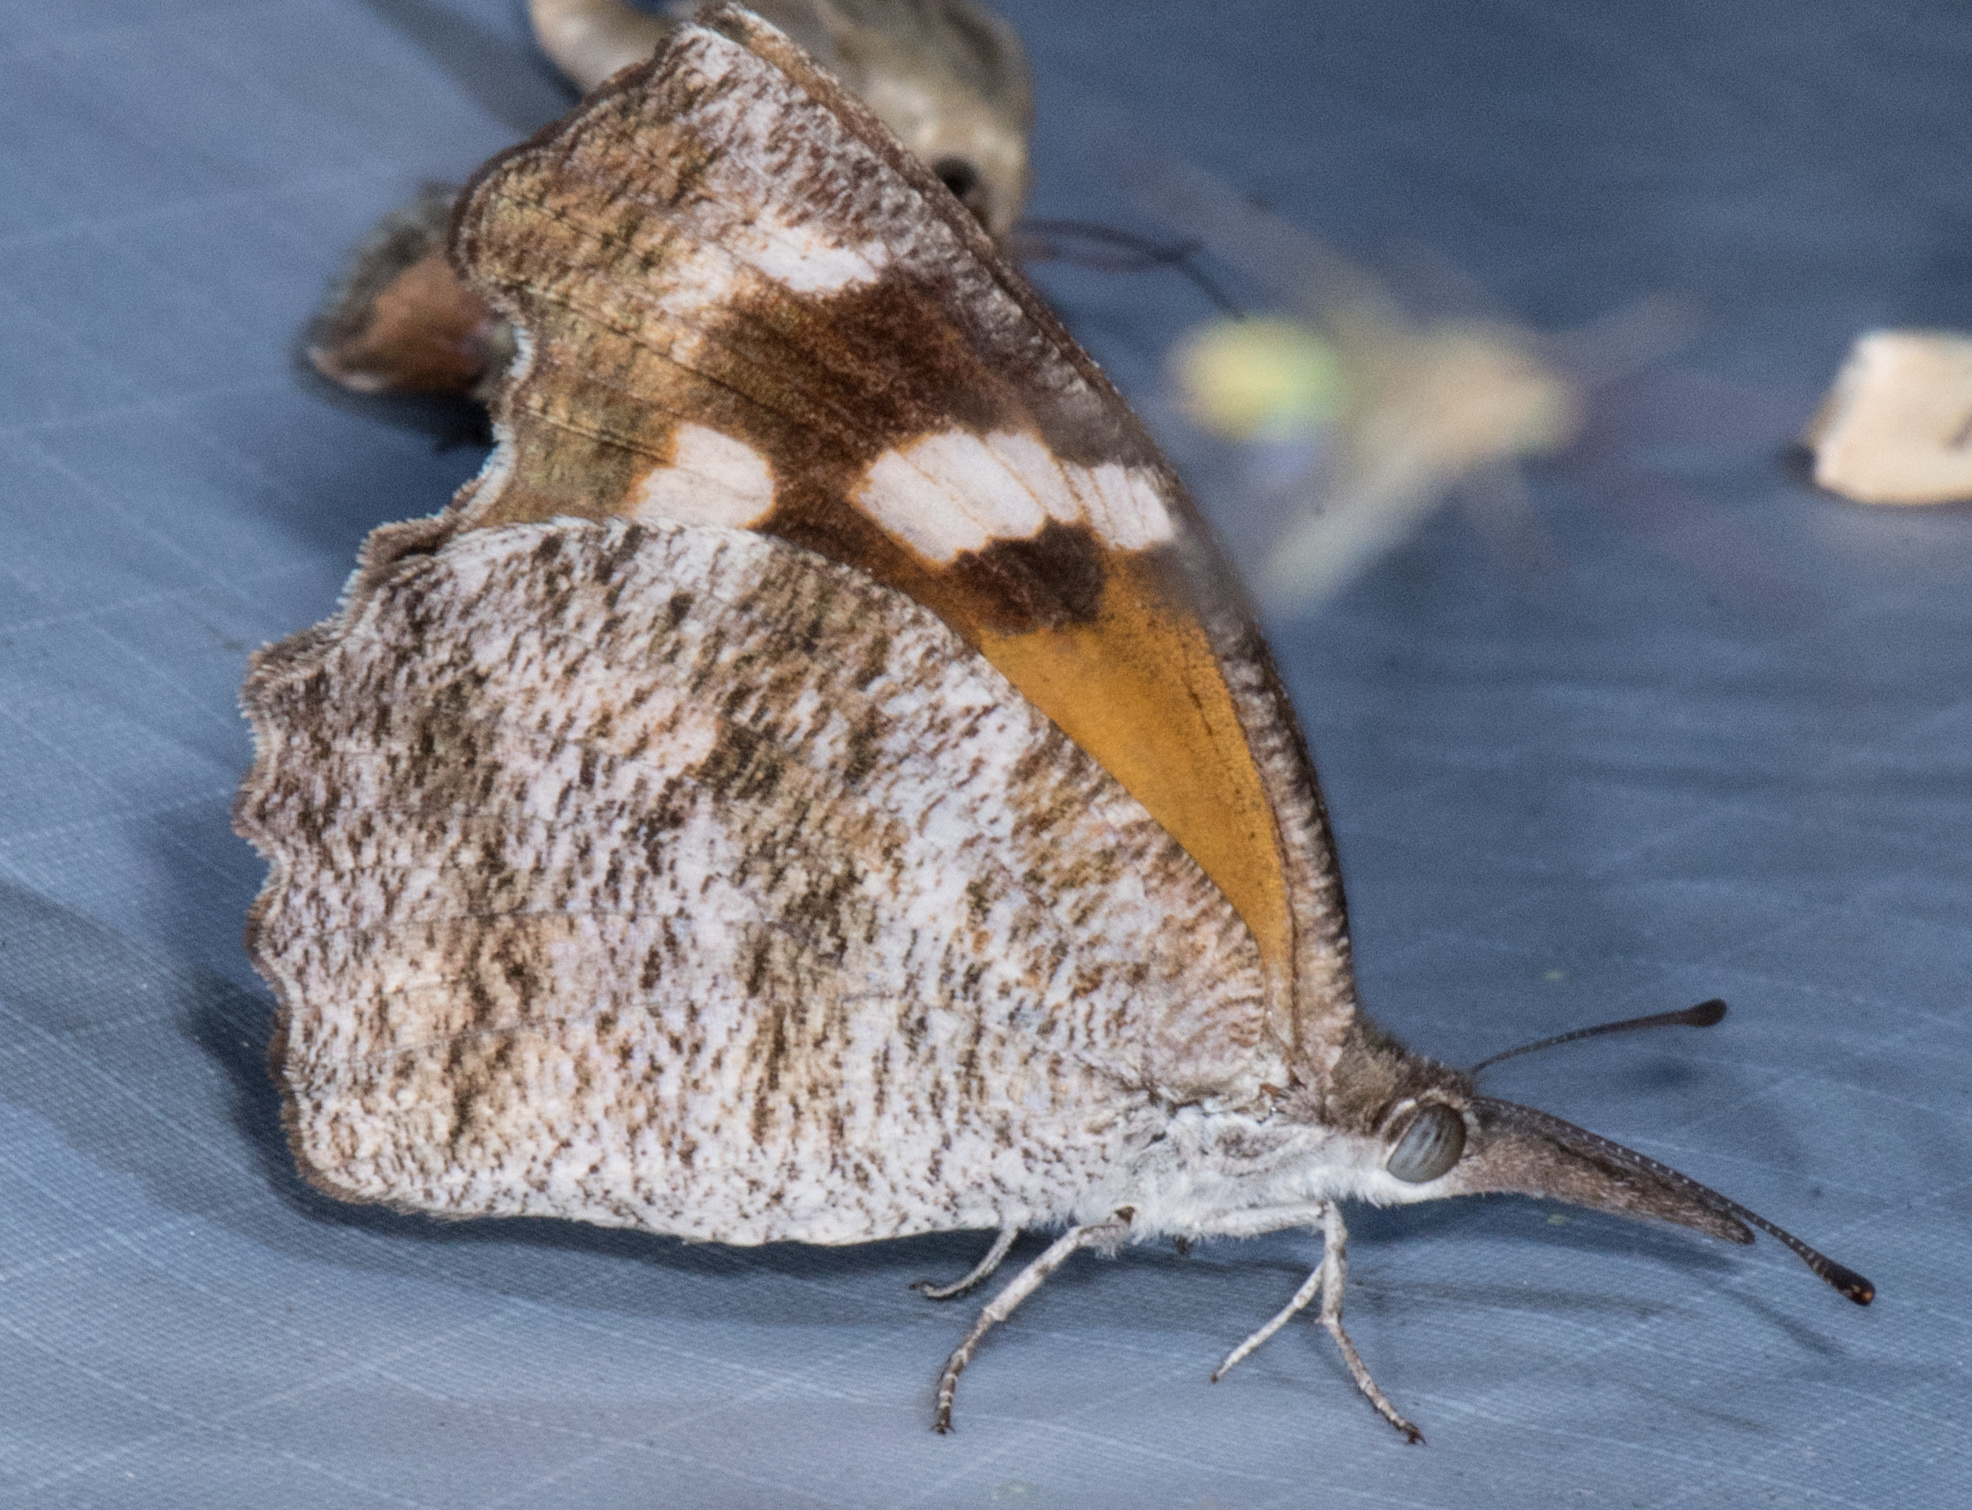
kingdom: Animalia
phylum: Arthropoda
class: Insecta
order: Lepidoptera
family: Nymphalidae
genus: Libytheana
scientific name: Libytheana carinenta
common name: American snout
